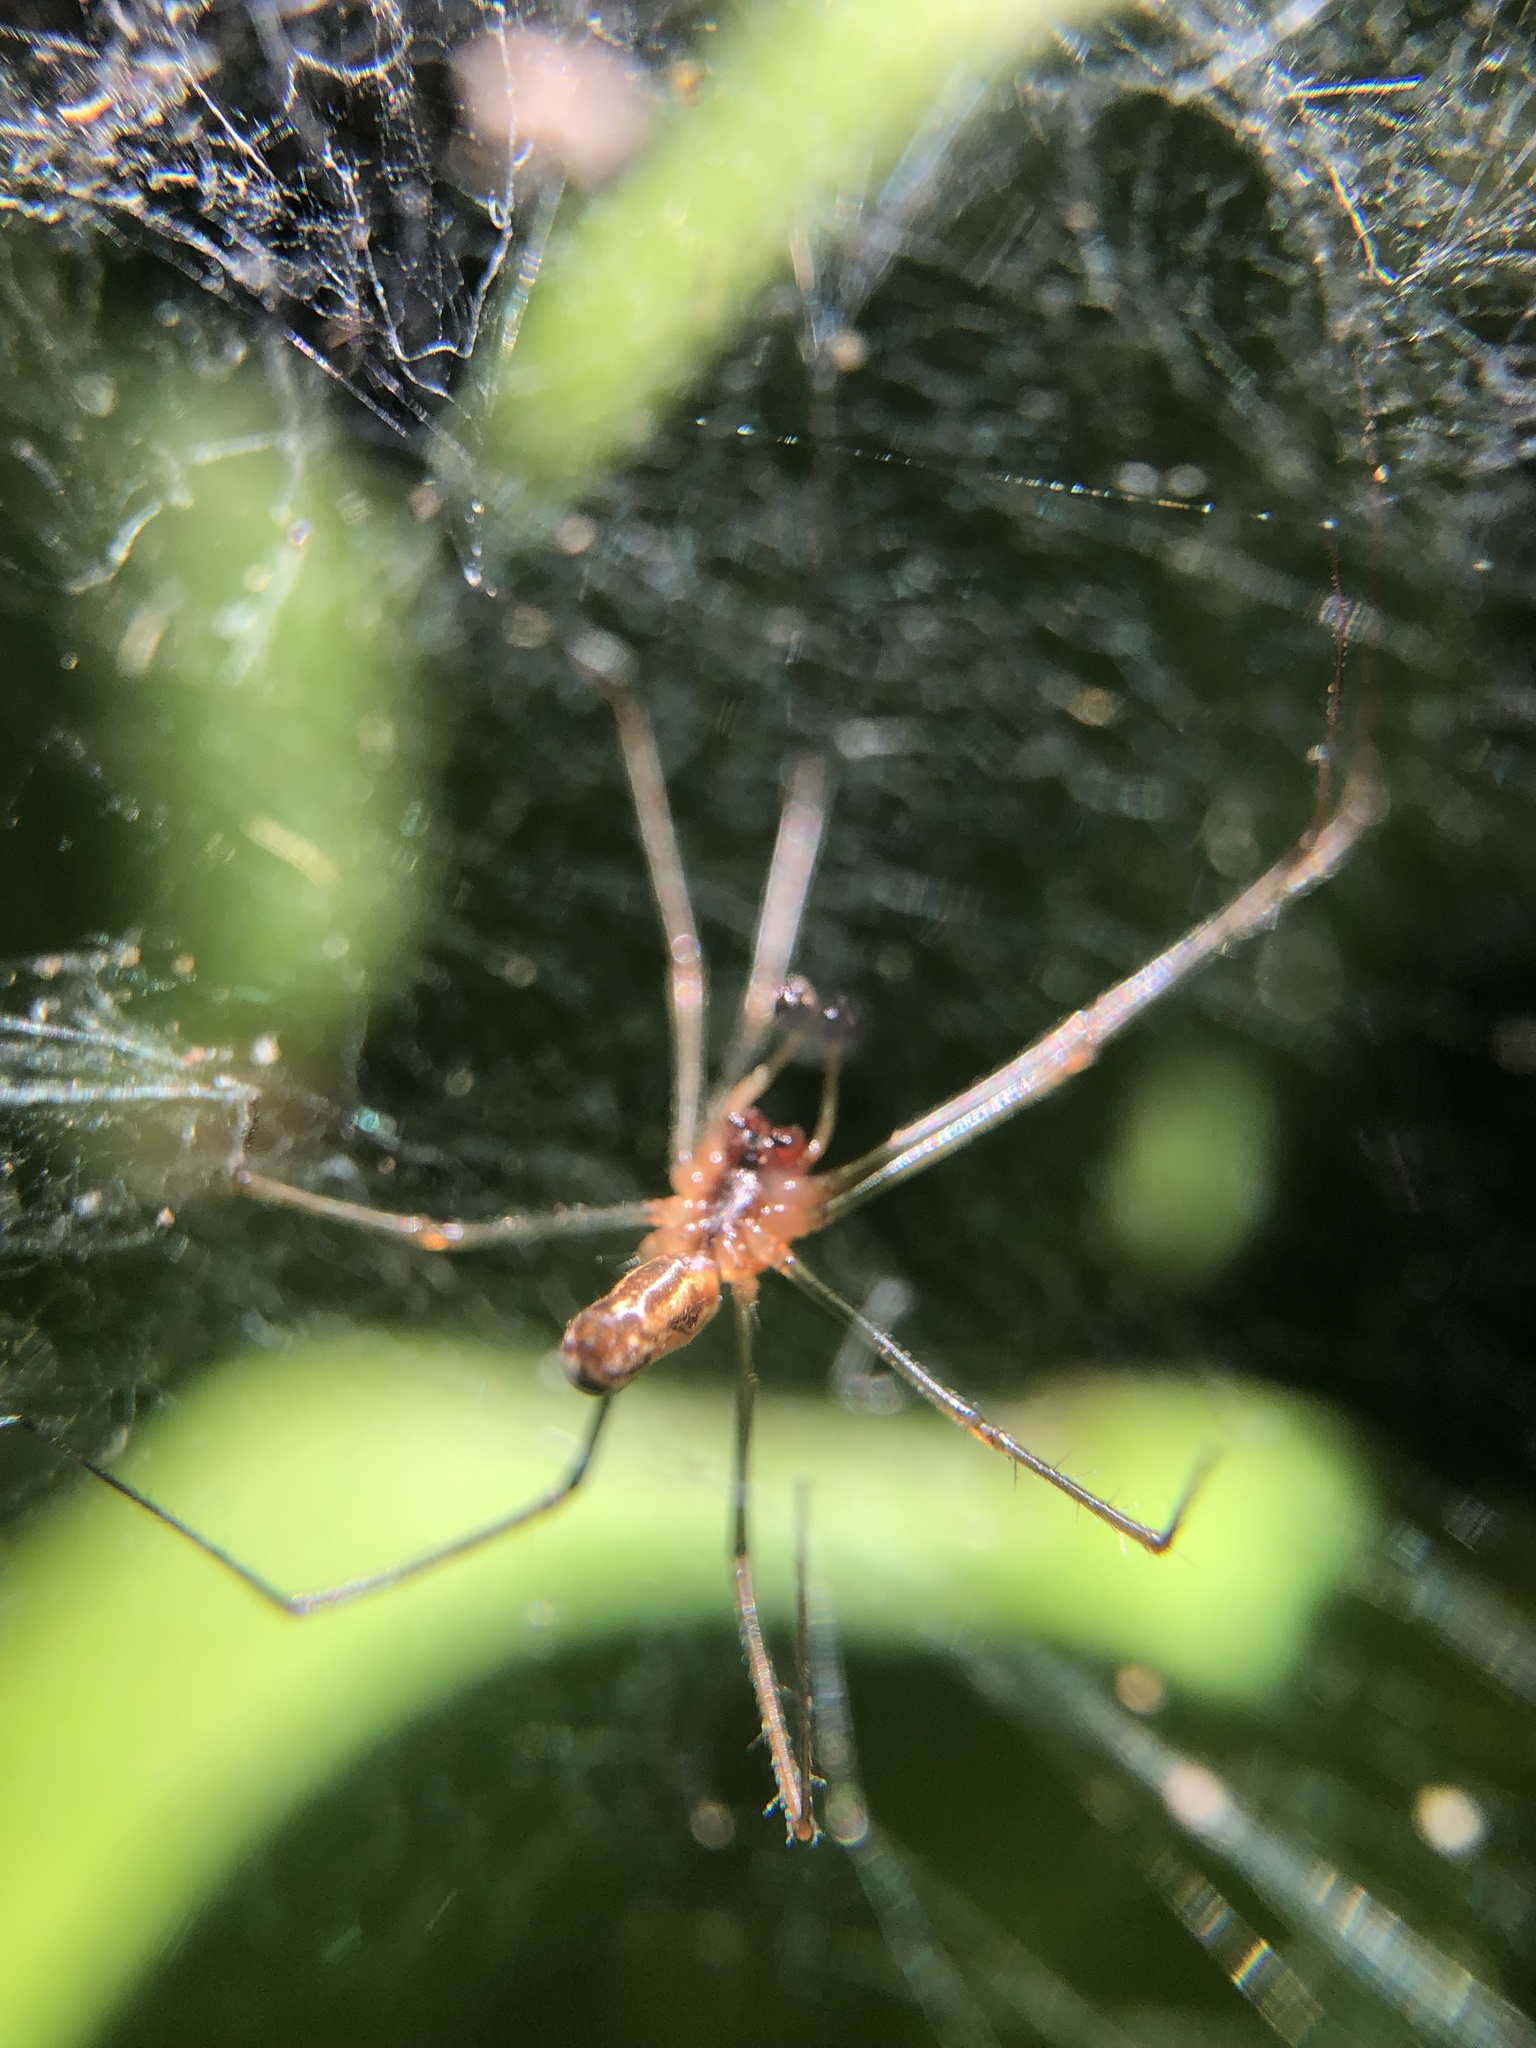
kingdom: Animalia
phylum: Arthropoda
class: Arachnida
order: Araneae
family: Linyphiidae
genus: Neriene
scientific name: Neriene litigiosa
